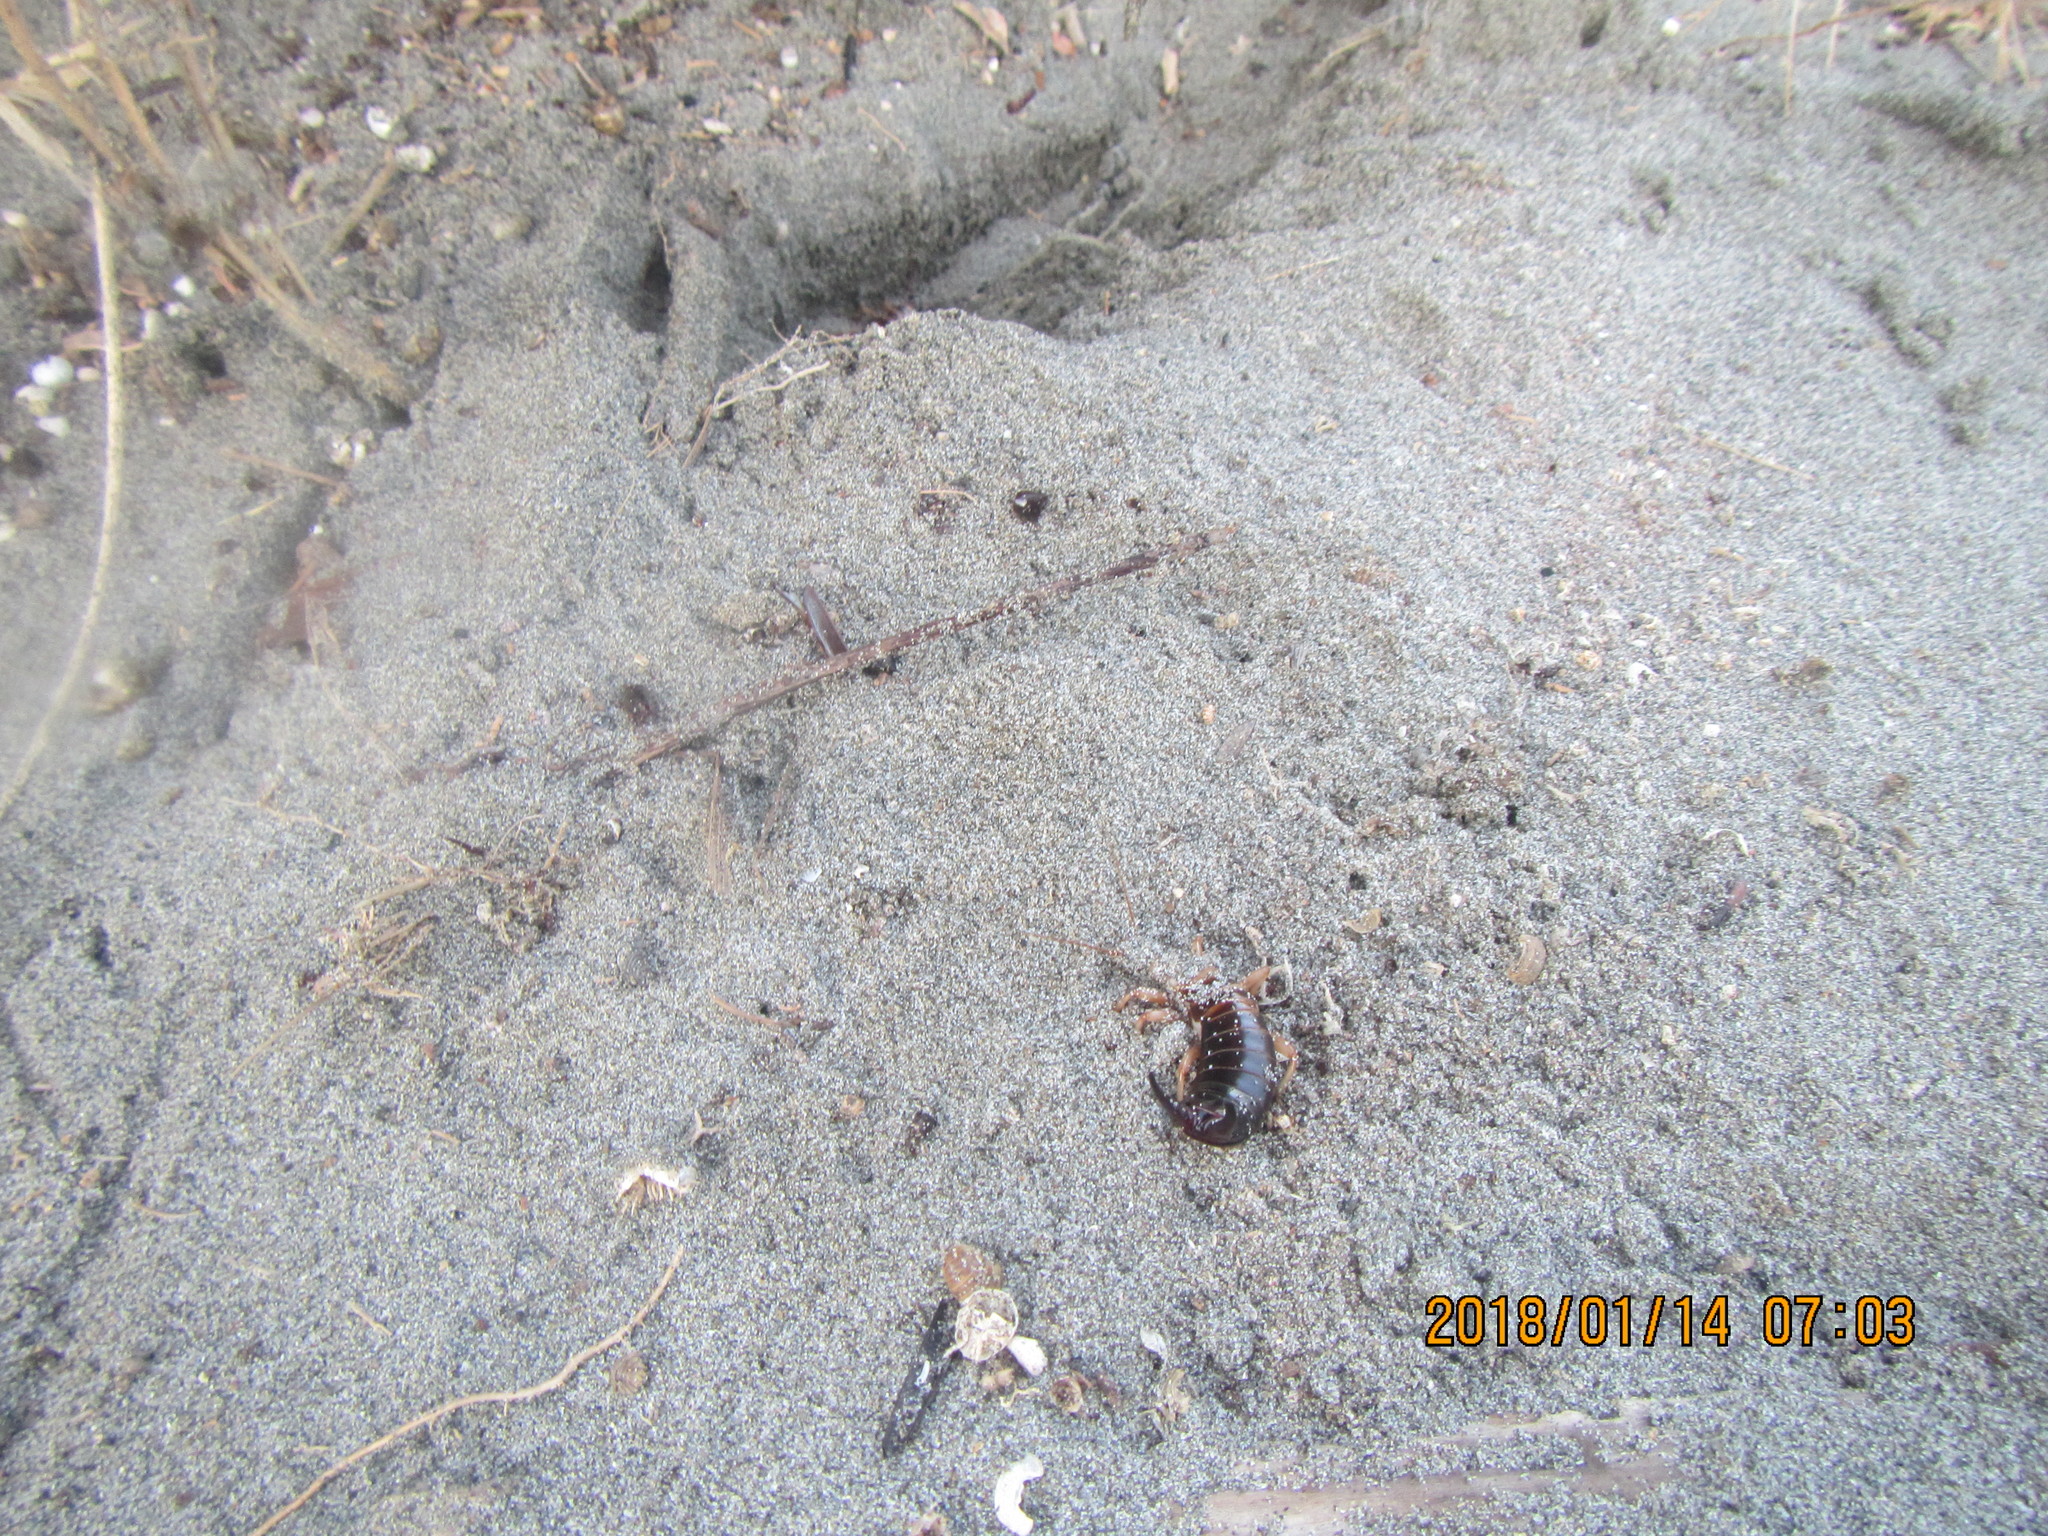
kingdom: Animalia
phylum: Arthropoda
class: Insecta
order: Dermaptera
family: Anisolabididae
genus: Anisolabis
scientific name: Anisolabis littorea
